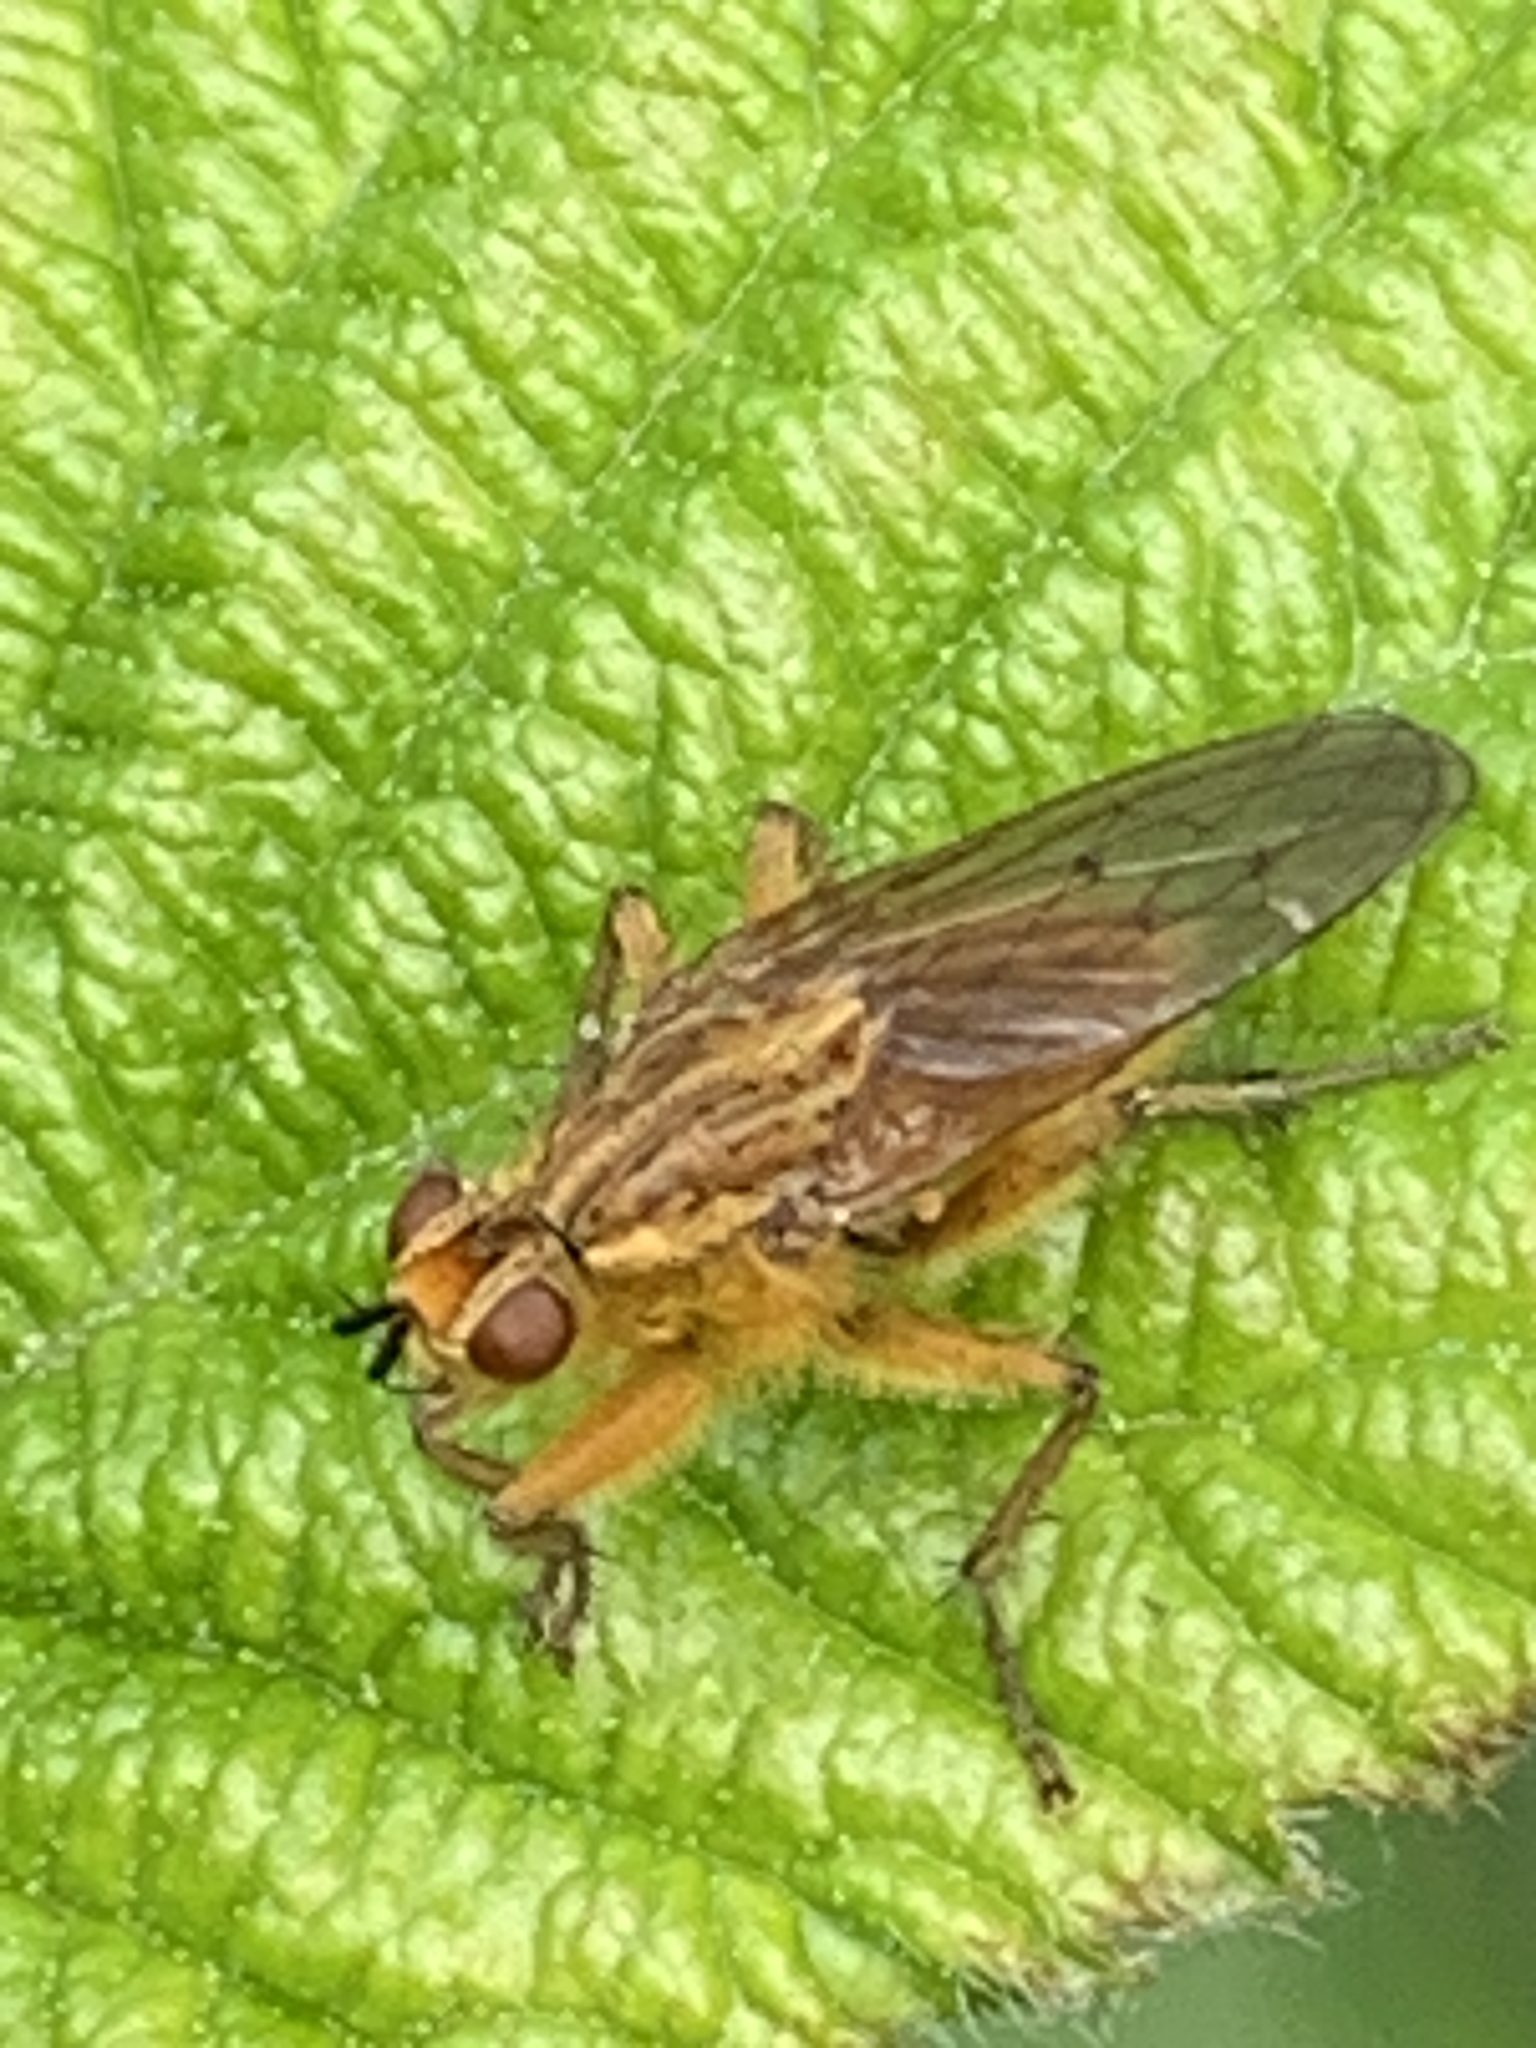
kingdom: Animalia
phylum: Arthropoda
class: Insecta
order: Diptera
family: Scathophagidae
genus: Scathophaga
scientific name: Scathophaga stercoraria
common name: Yellow dung fly
